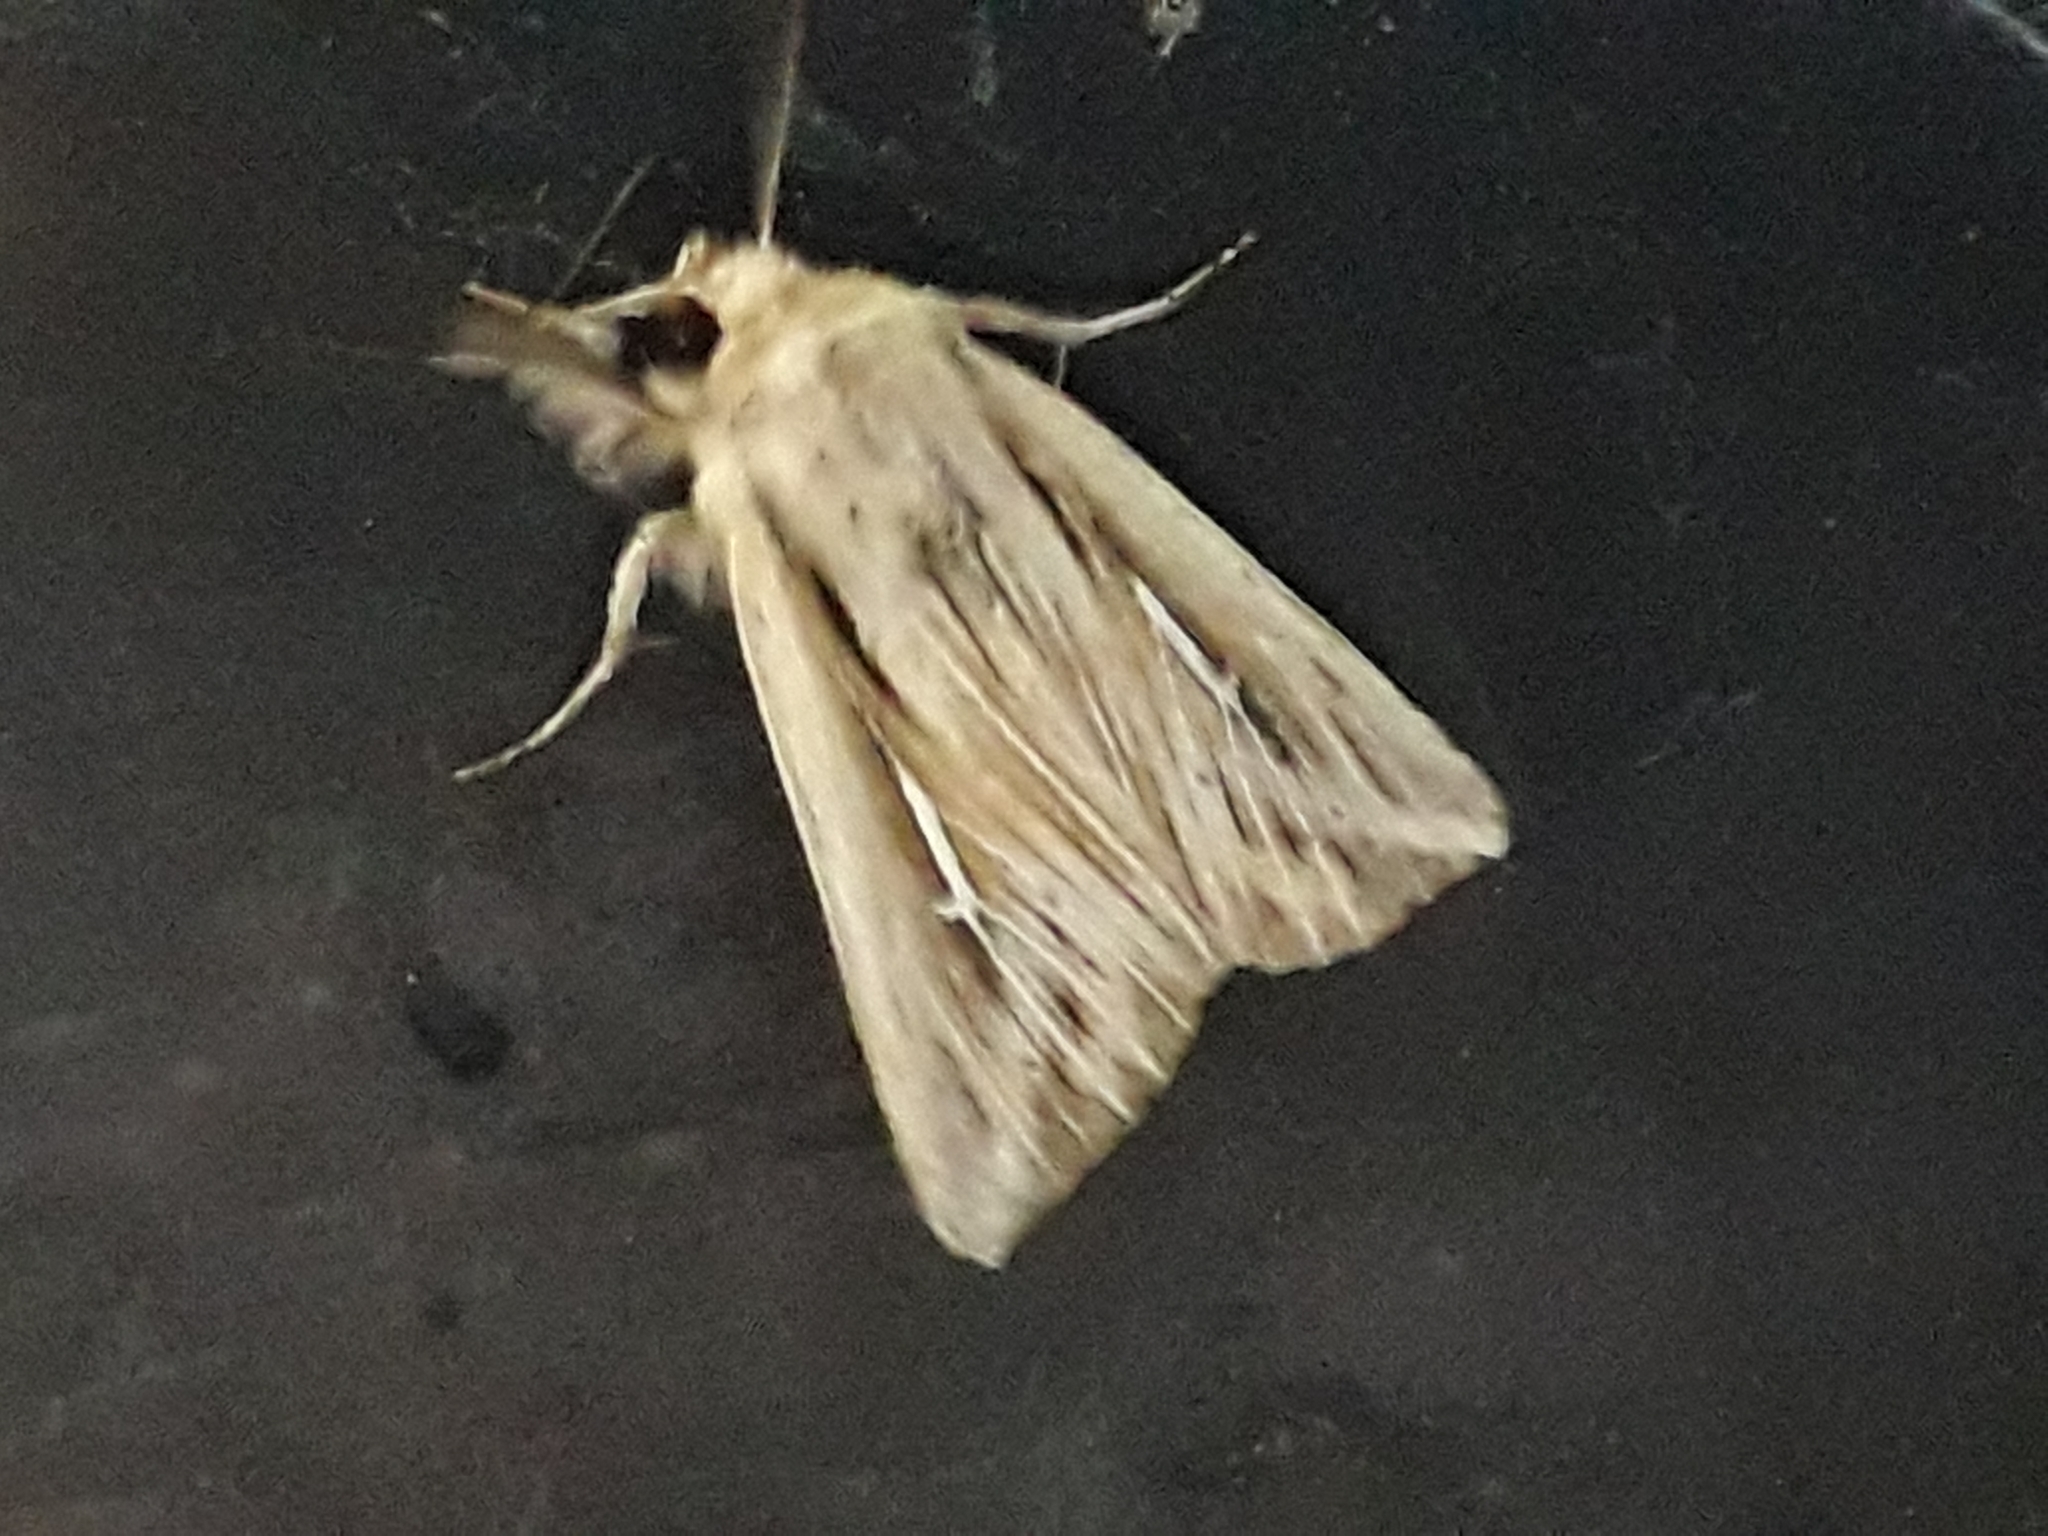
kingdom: Animalia
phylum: Arthropoda
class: Insecta
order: Lepidoptera
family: Noctuidae
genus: Mythimna
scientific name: Mythimna l-album
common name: L-album wainscot
